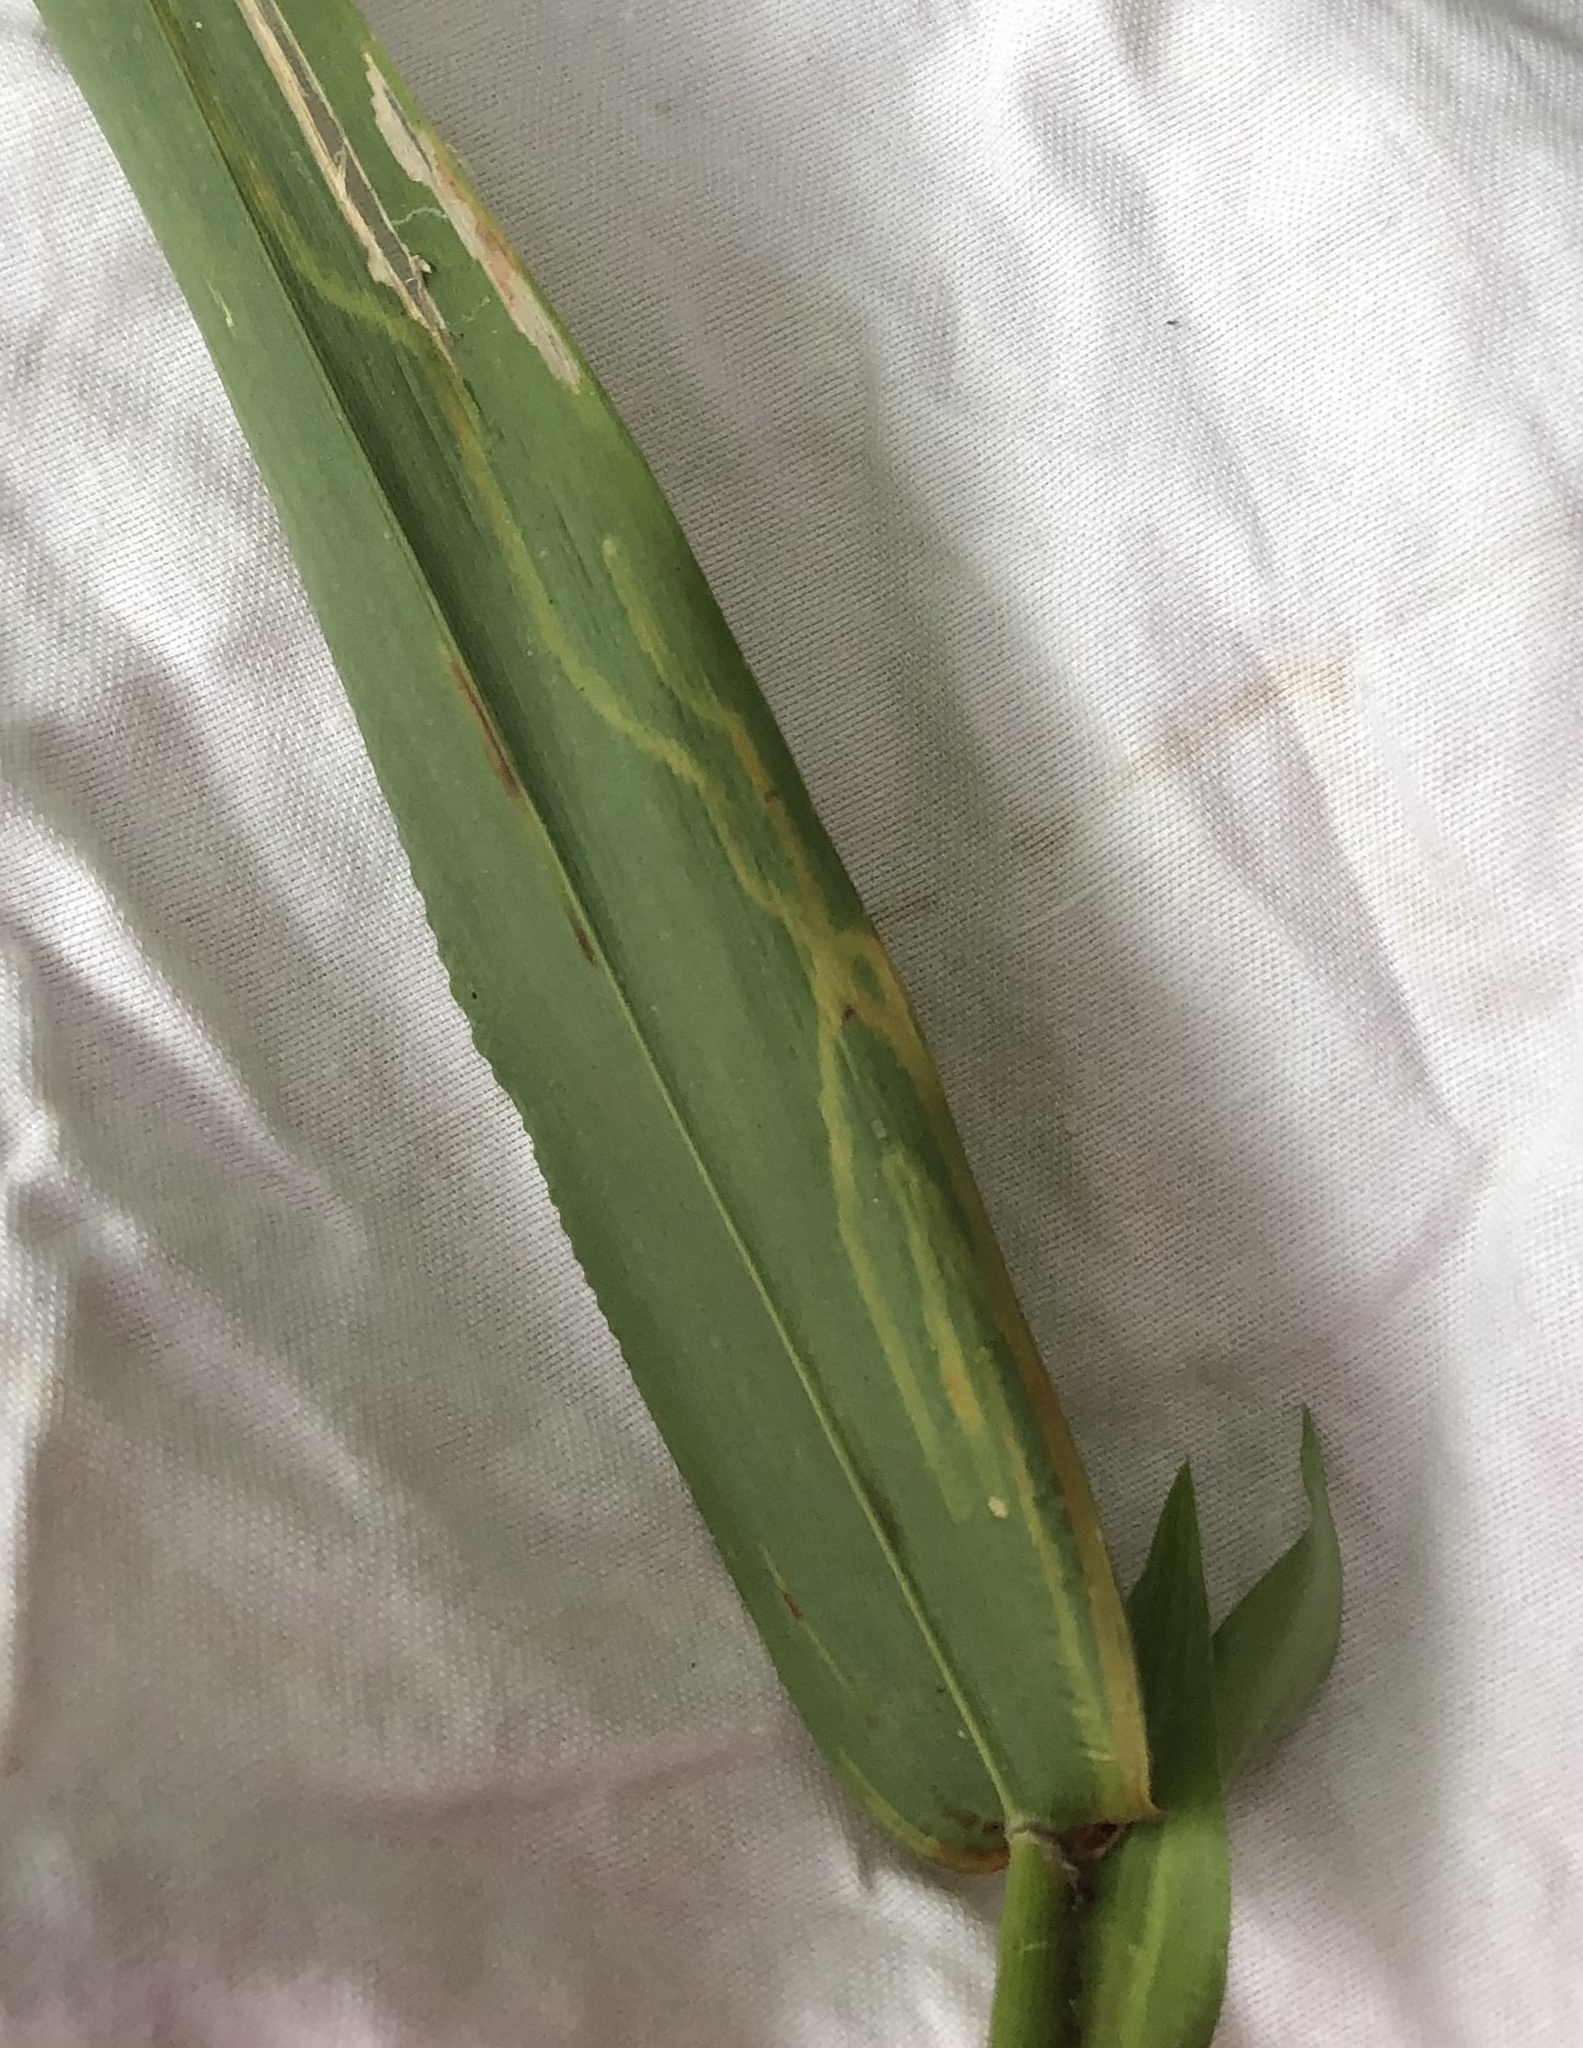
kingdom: Animalia
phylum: Arthropoda
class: Insecta
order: Diptera
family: Agromyzidae
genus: Cerodontha
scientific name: Cerodontha dorsalis
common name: Grass sheathminer fly
